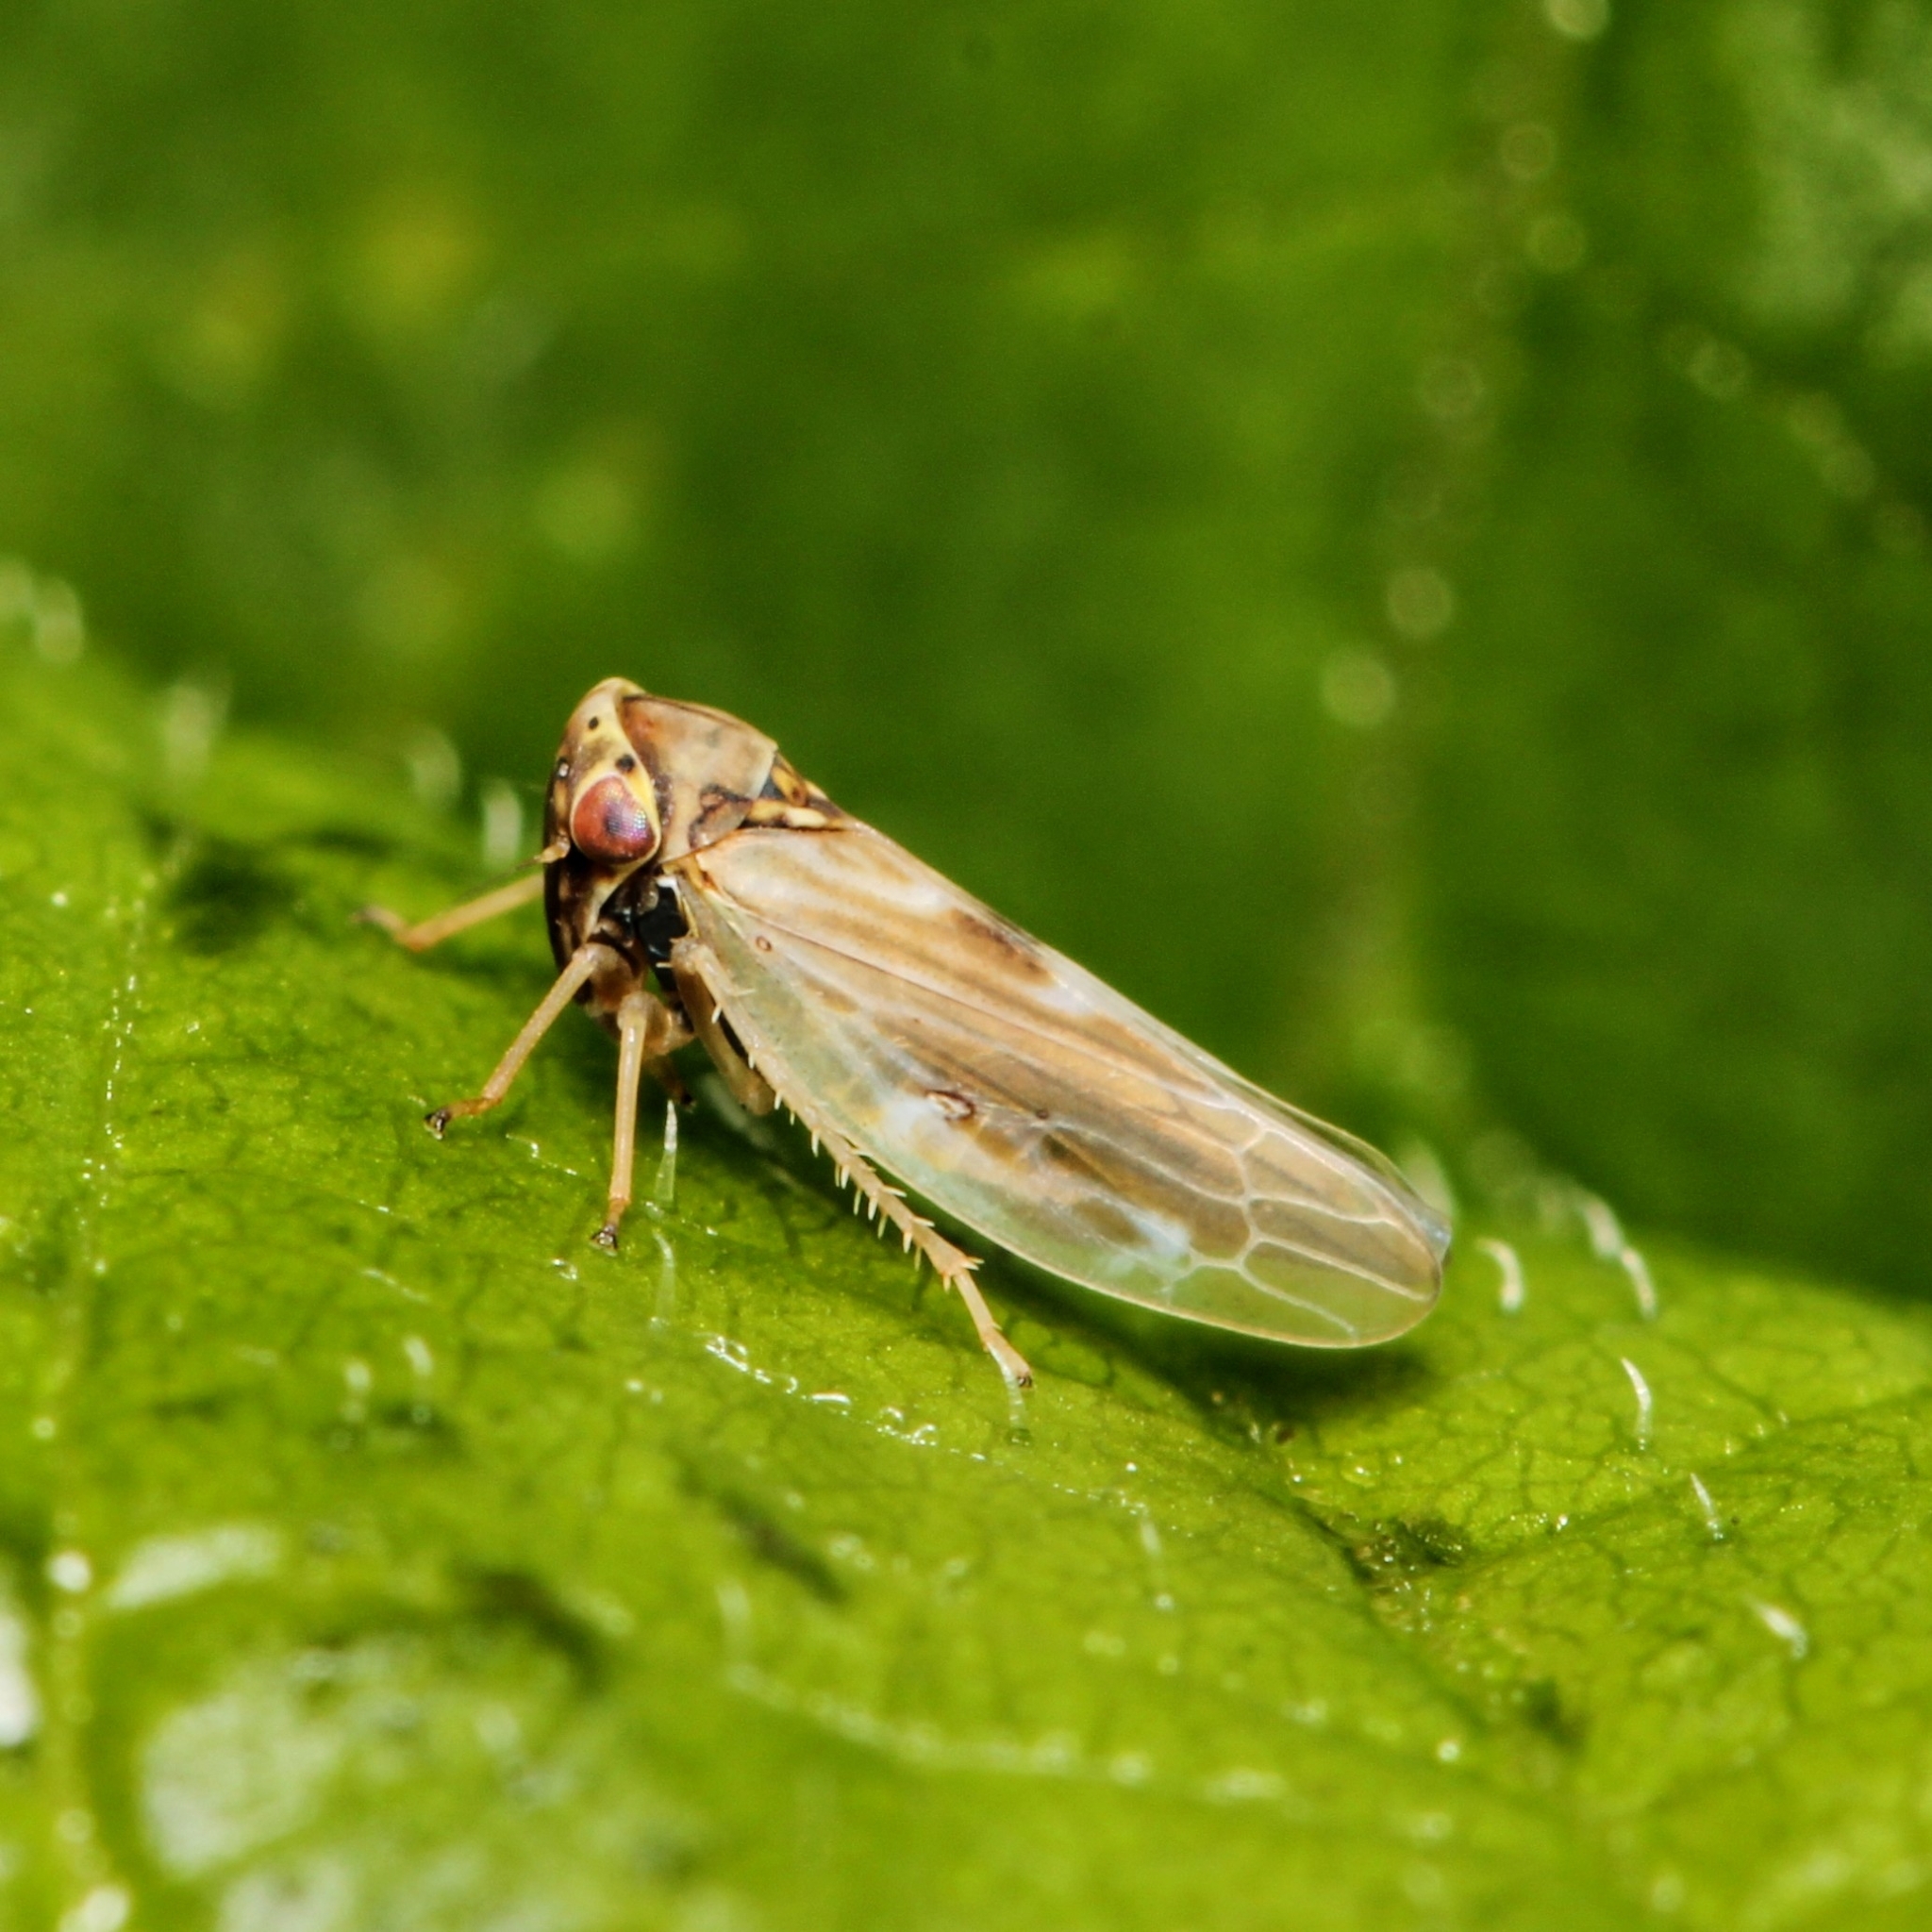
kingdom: Animalia
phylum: Arthropoda
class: Insecta
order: Hemiptera
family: Cicadellidae
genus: Agalliopsis
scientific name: Agalliopsis ancistra
